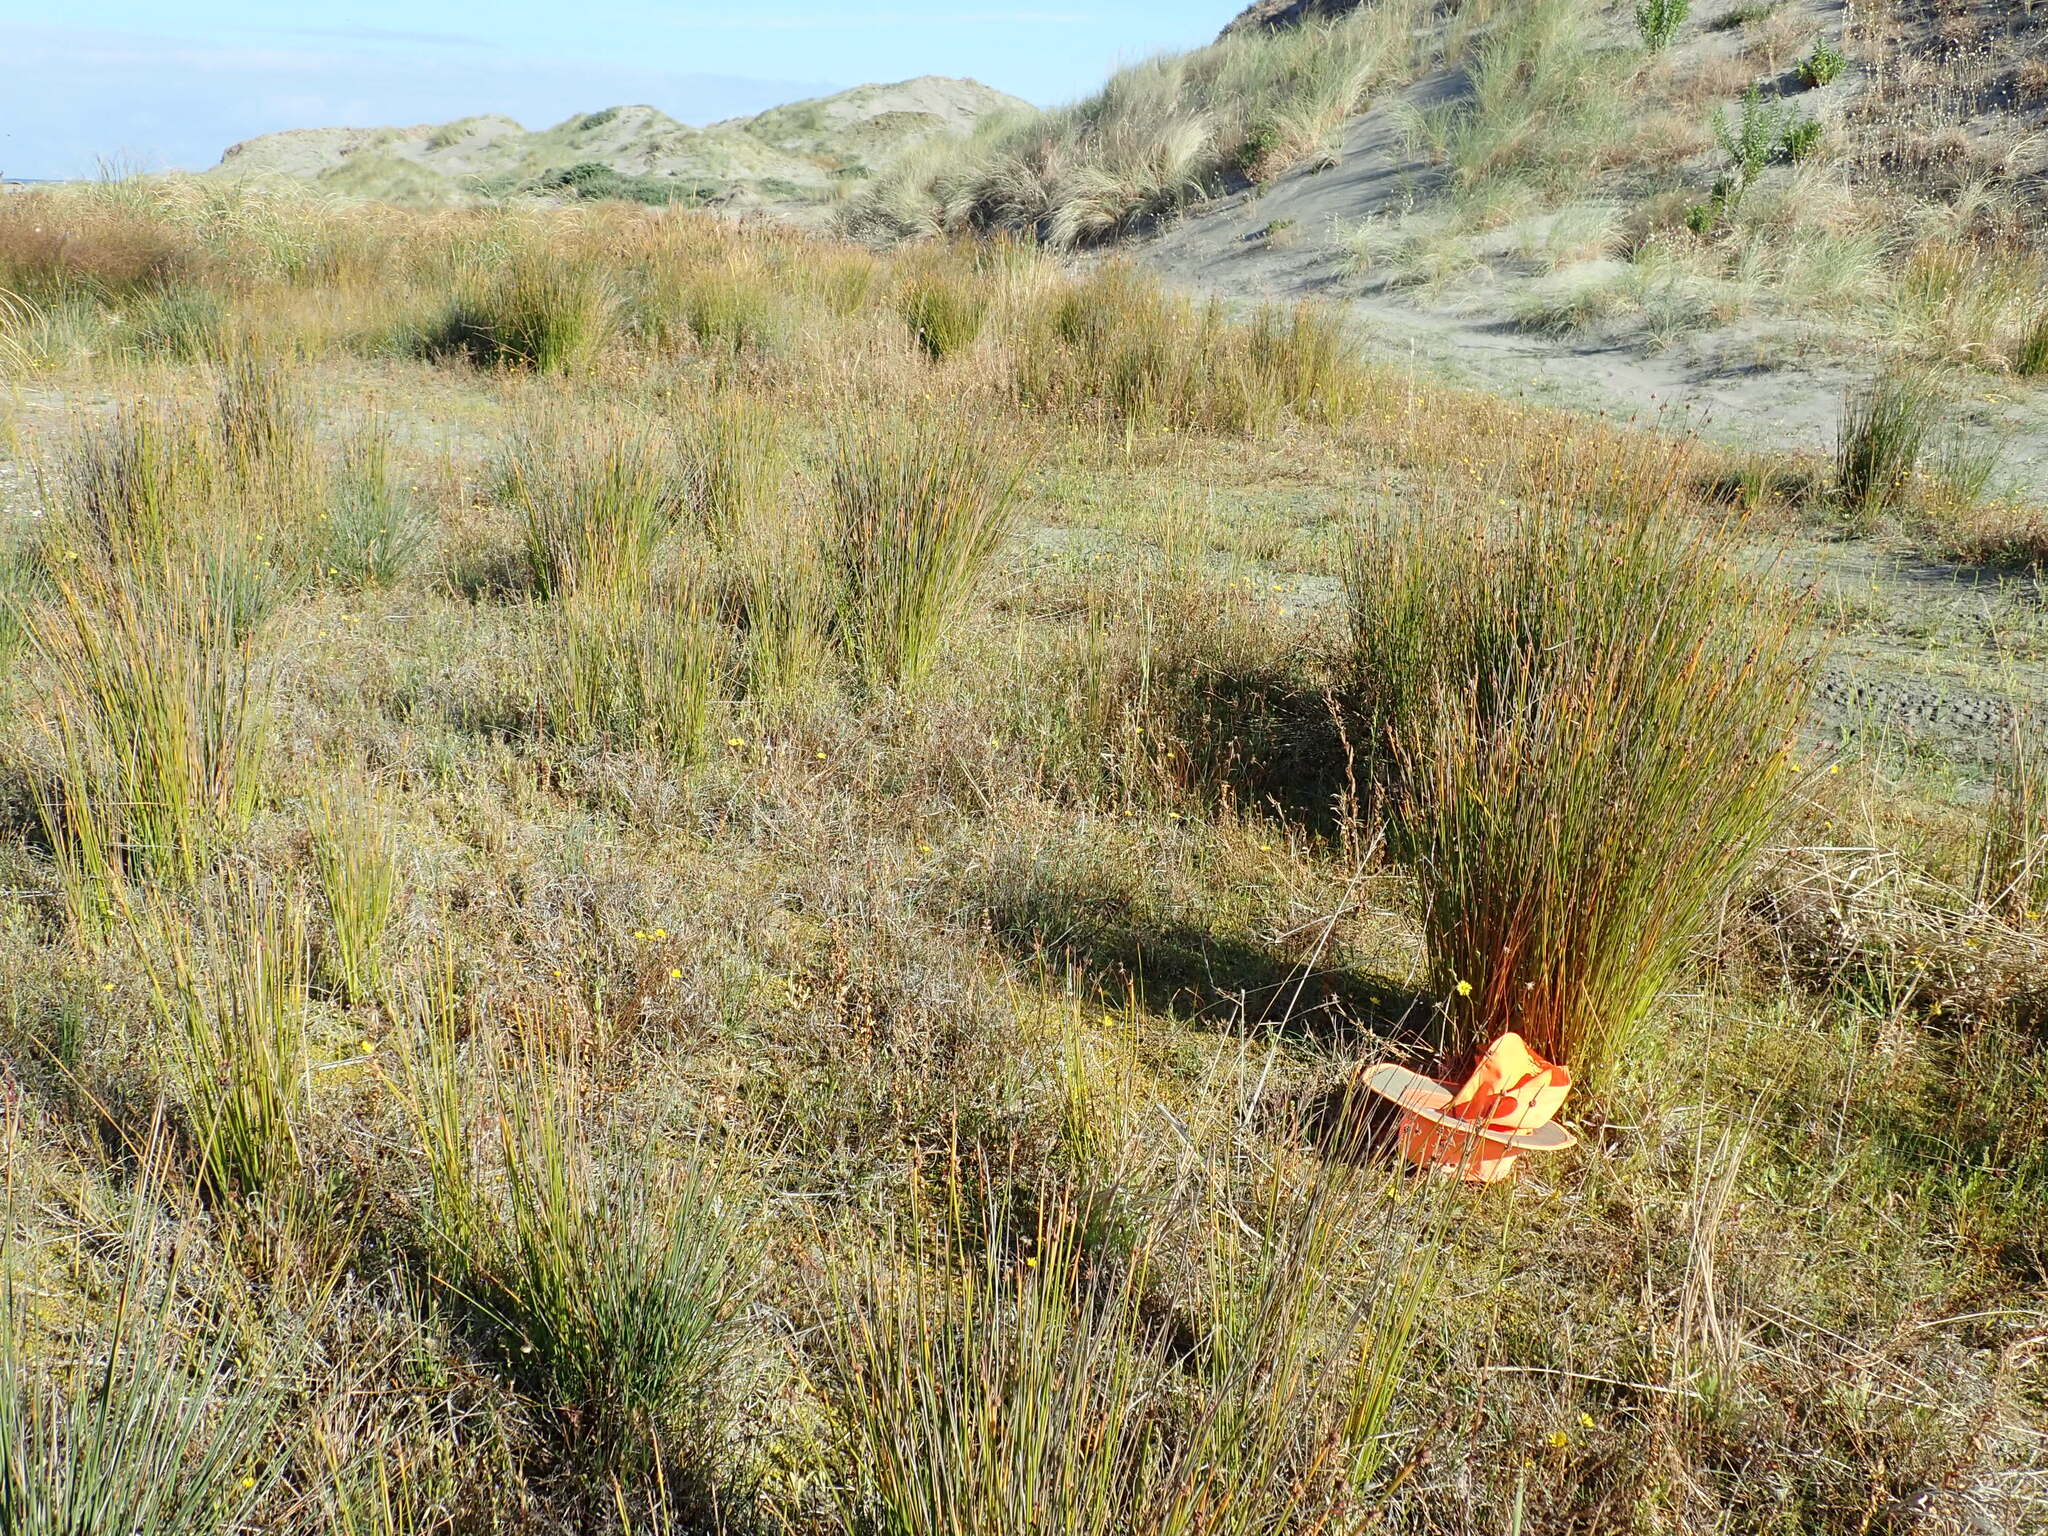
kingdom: Plantae
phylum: Tracheophyta
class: Magnoliopsida
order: Saxifragales
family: Haloragaceae
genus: Myriophyllum
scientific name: Myriophyllum votschii
